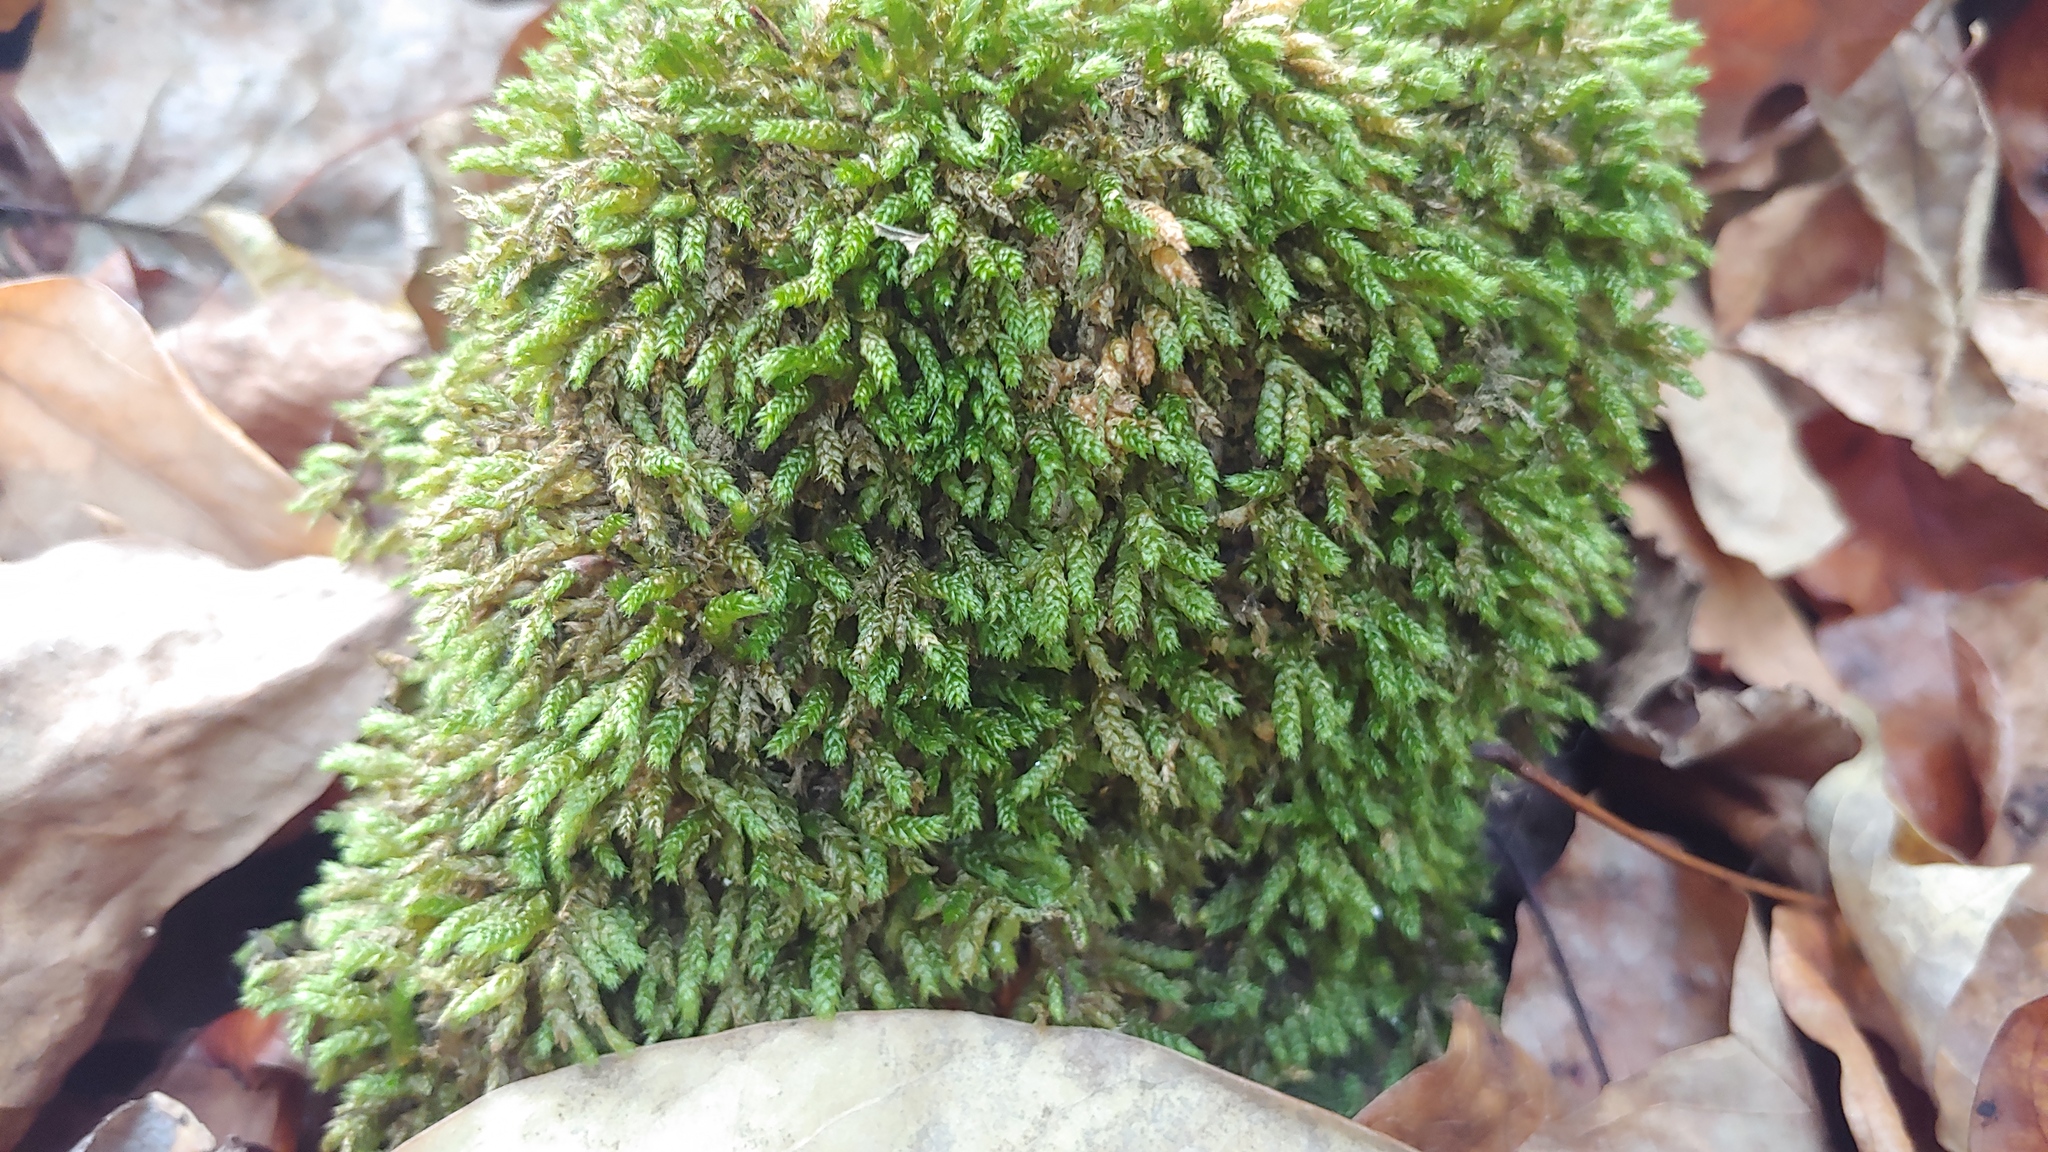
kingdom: Plantae
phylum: Bryophyta
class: Bryopsida
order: Hypnales
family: Brachytheciaceae
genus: Bryoandersonia
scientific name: Bryoandersonia illecebra
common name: Spoon-leaved moss
